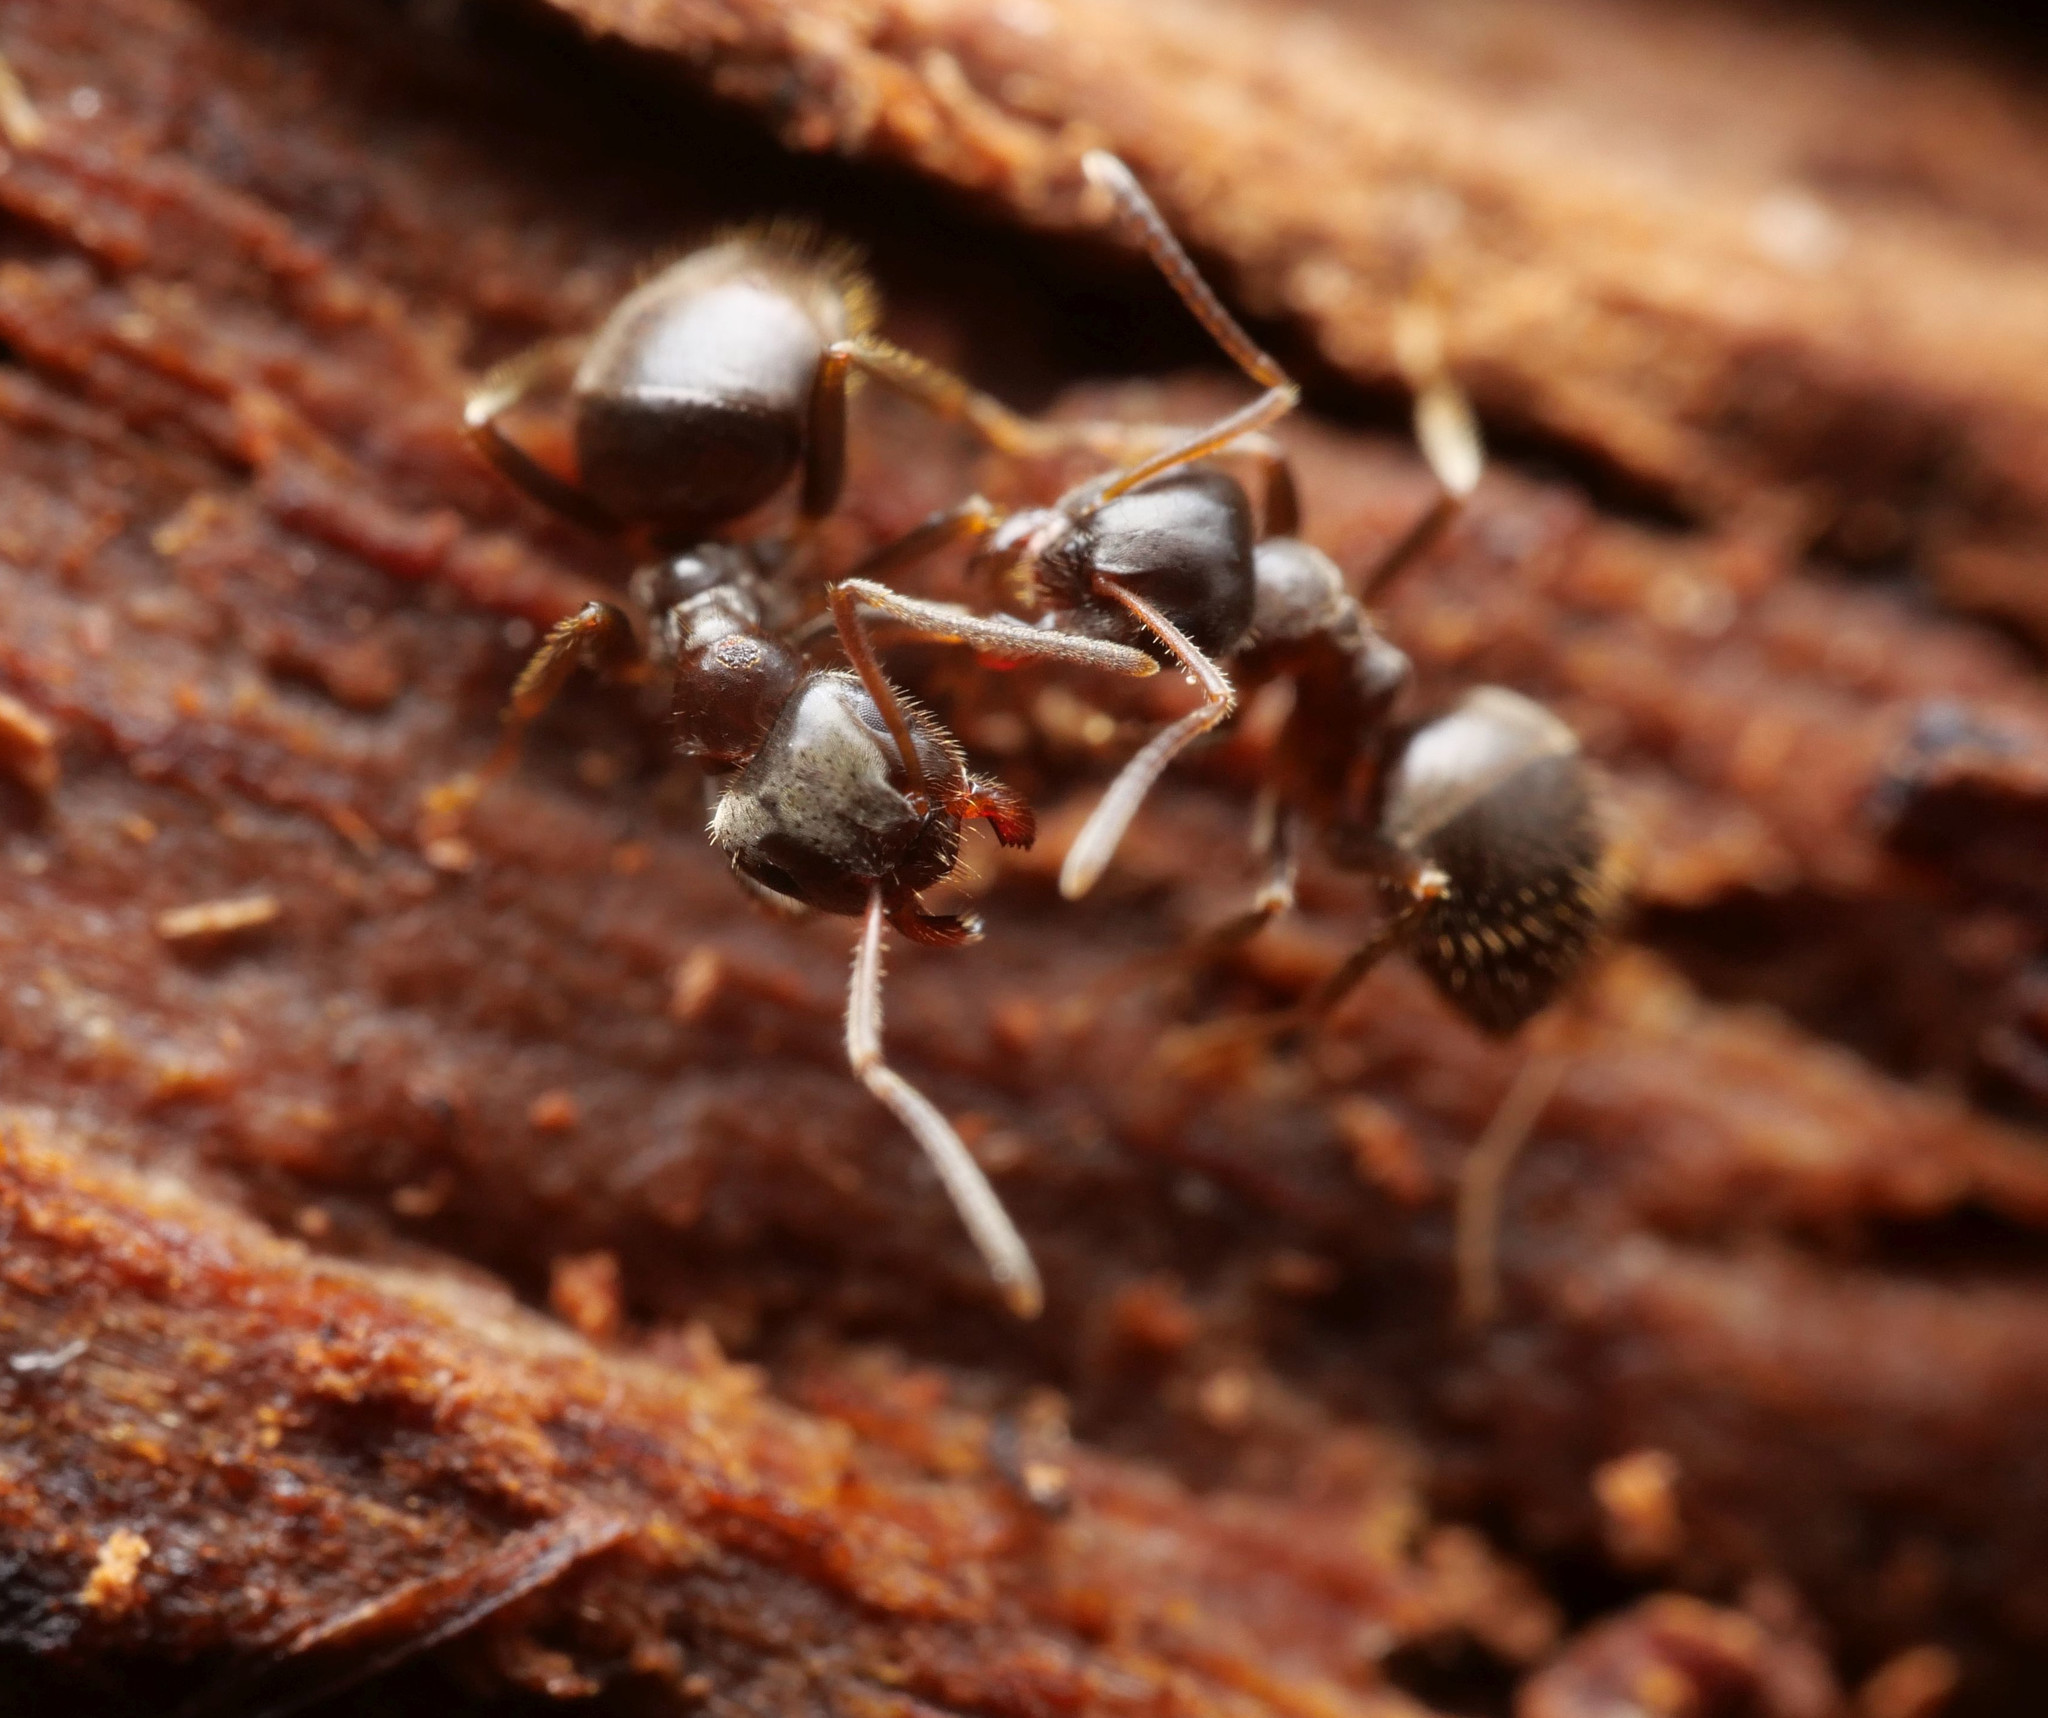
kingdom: Animalia
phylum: Arthropoda
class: Insecta
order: Hymenoptera
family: Formicidae
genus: Lasius
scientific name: Lasius platythorax
